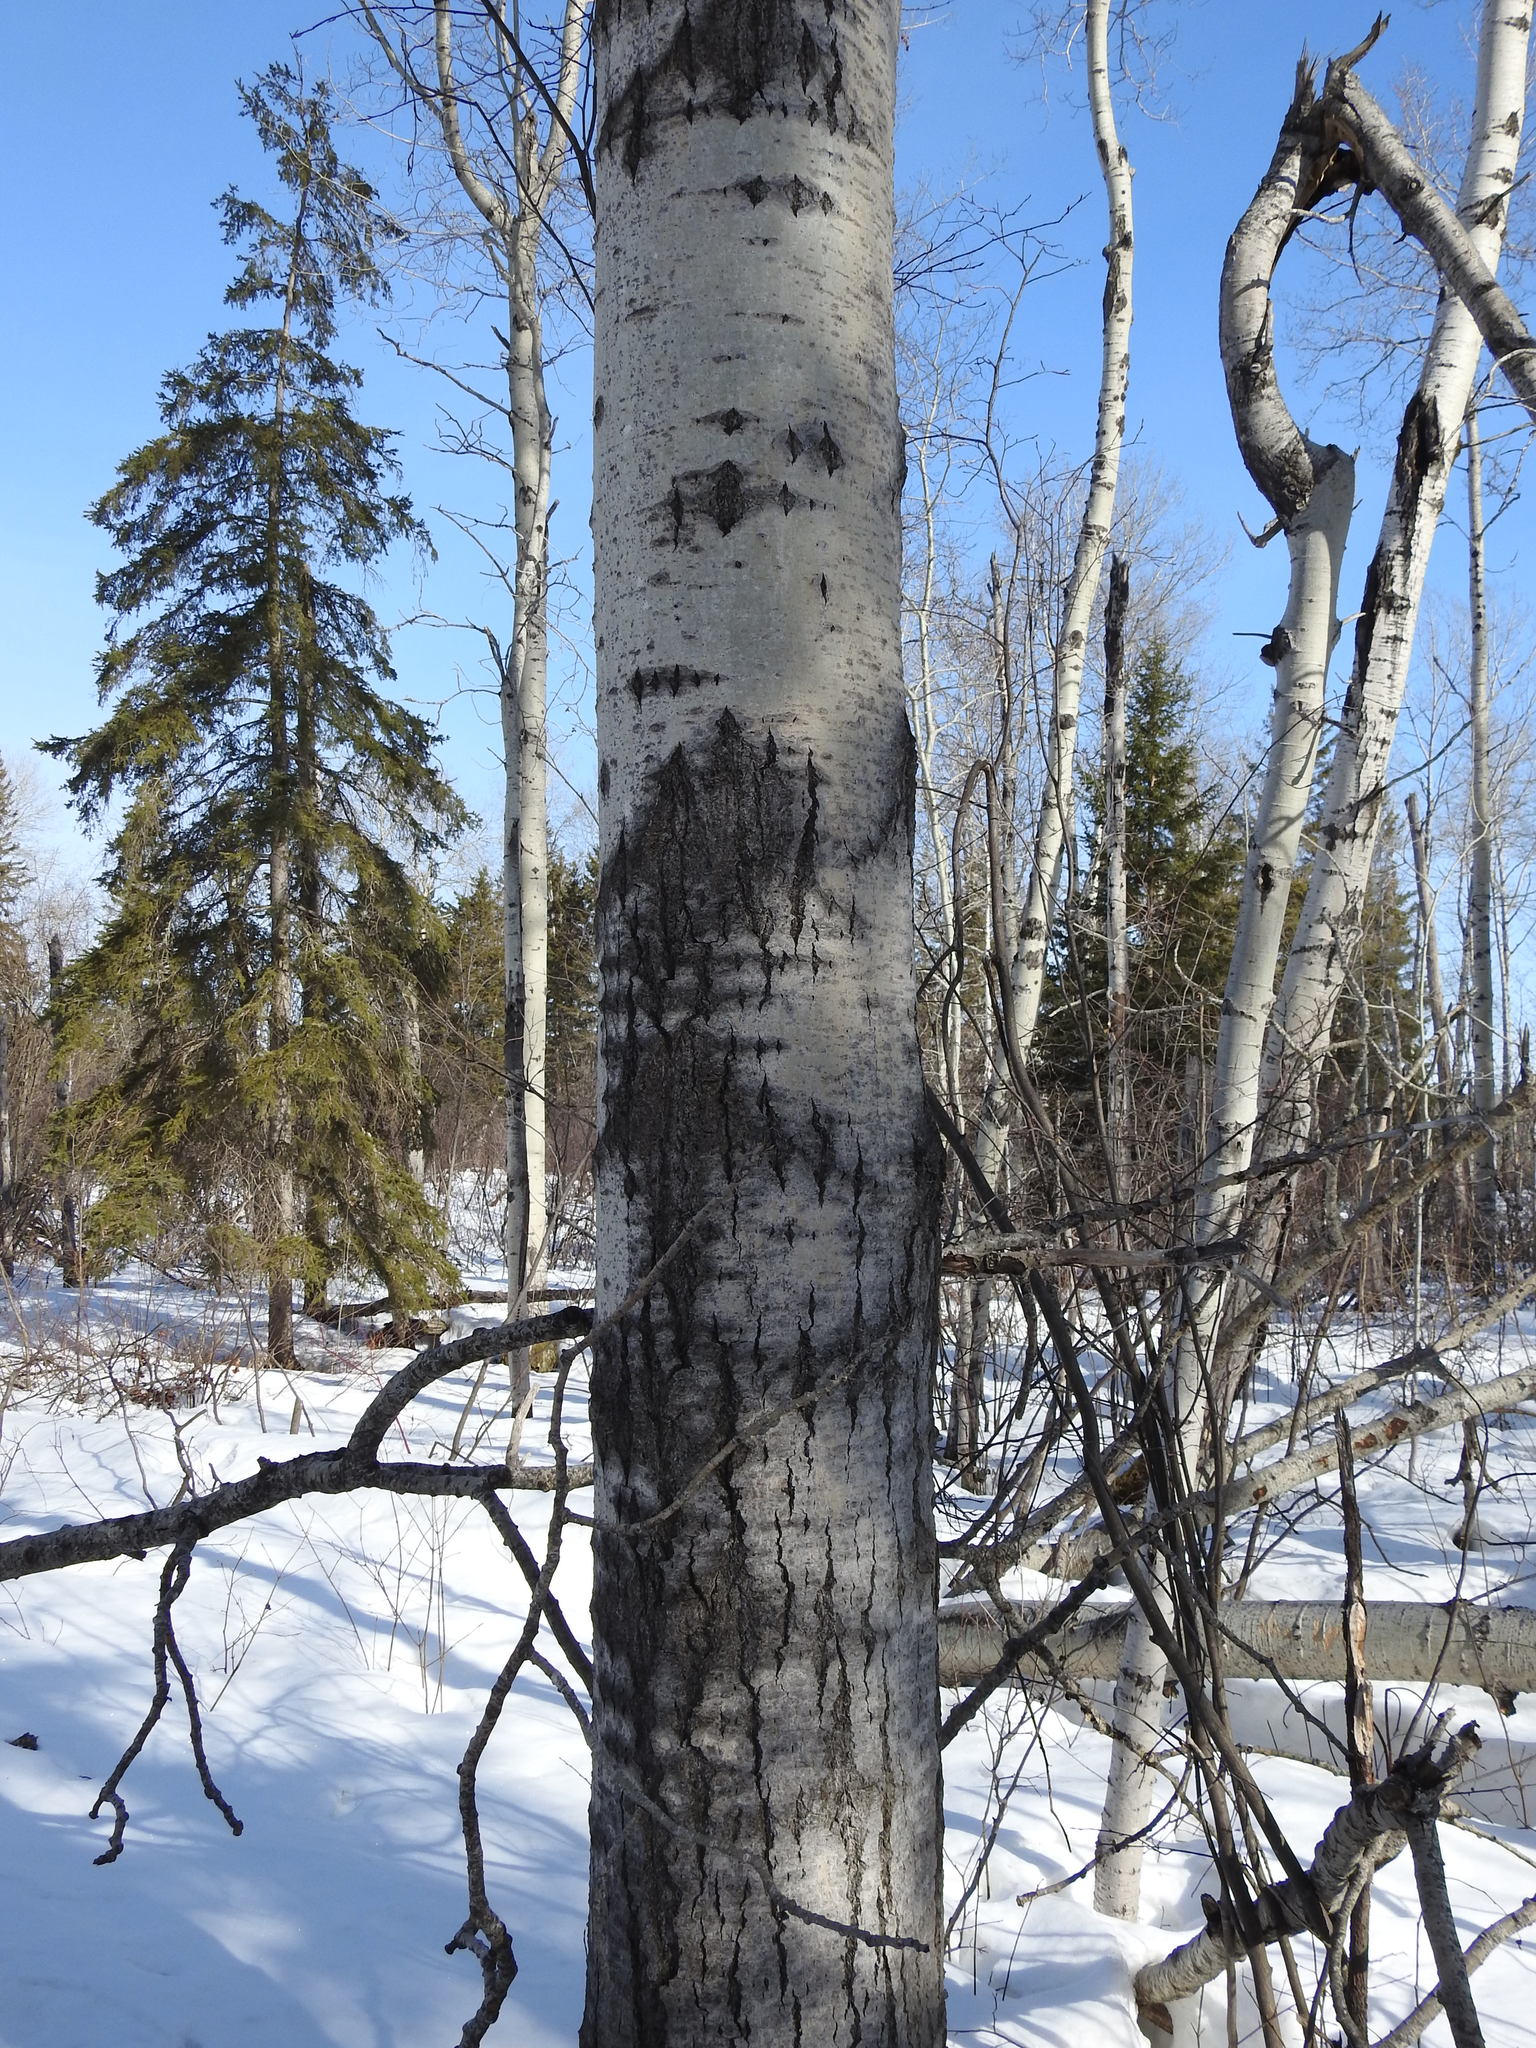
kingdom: Plantae
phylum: Tracheophyta
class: Magnoliopsida
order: Malpighiales
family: Salicaceae
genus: Populus
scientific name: Populus tremuloides
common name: Quaking aspen
